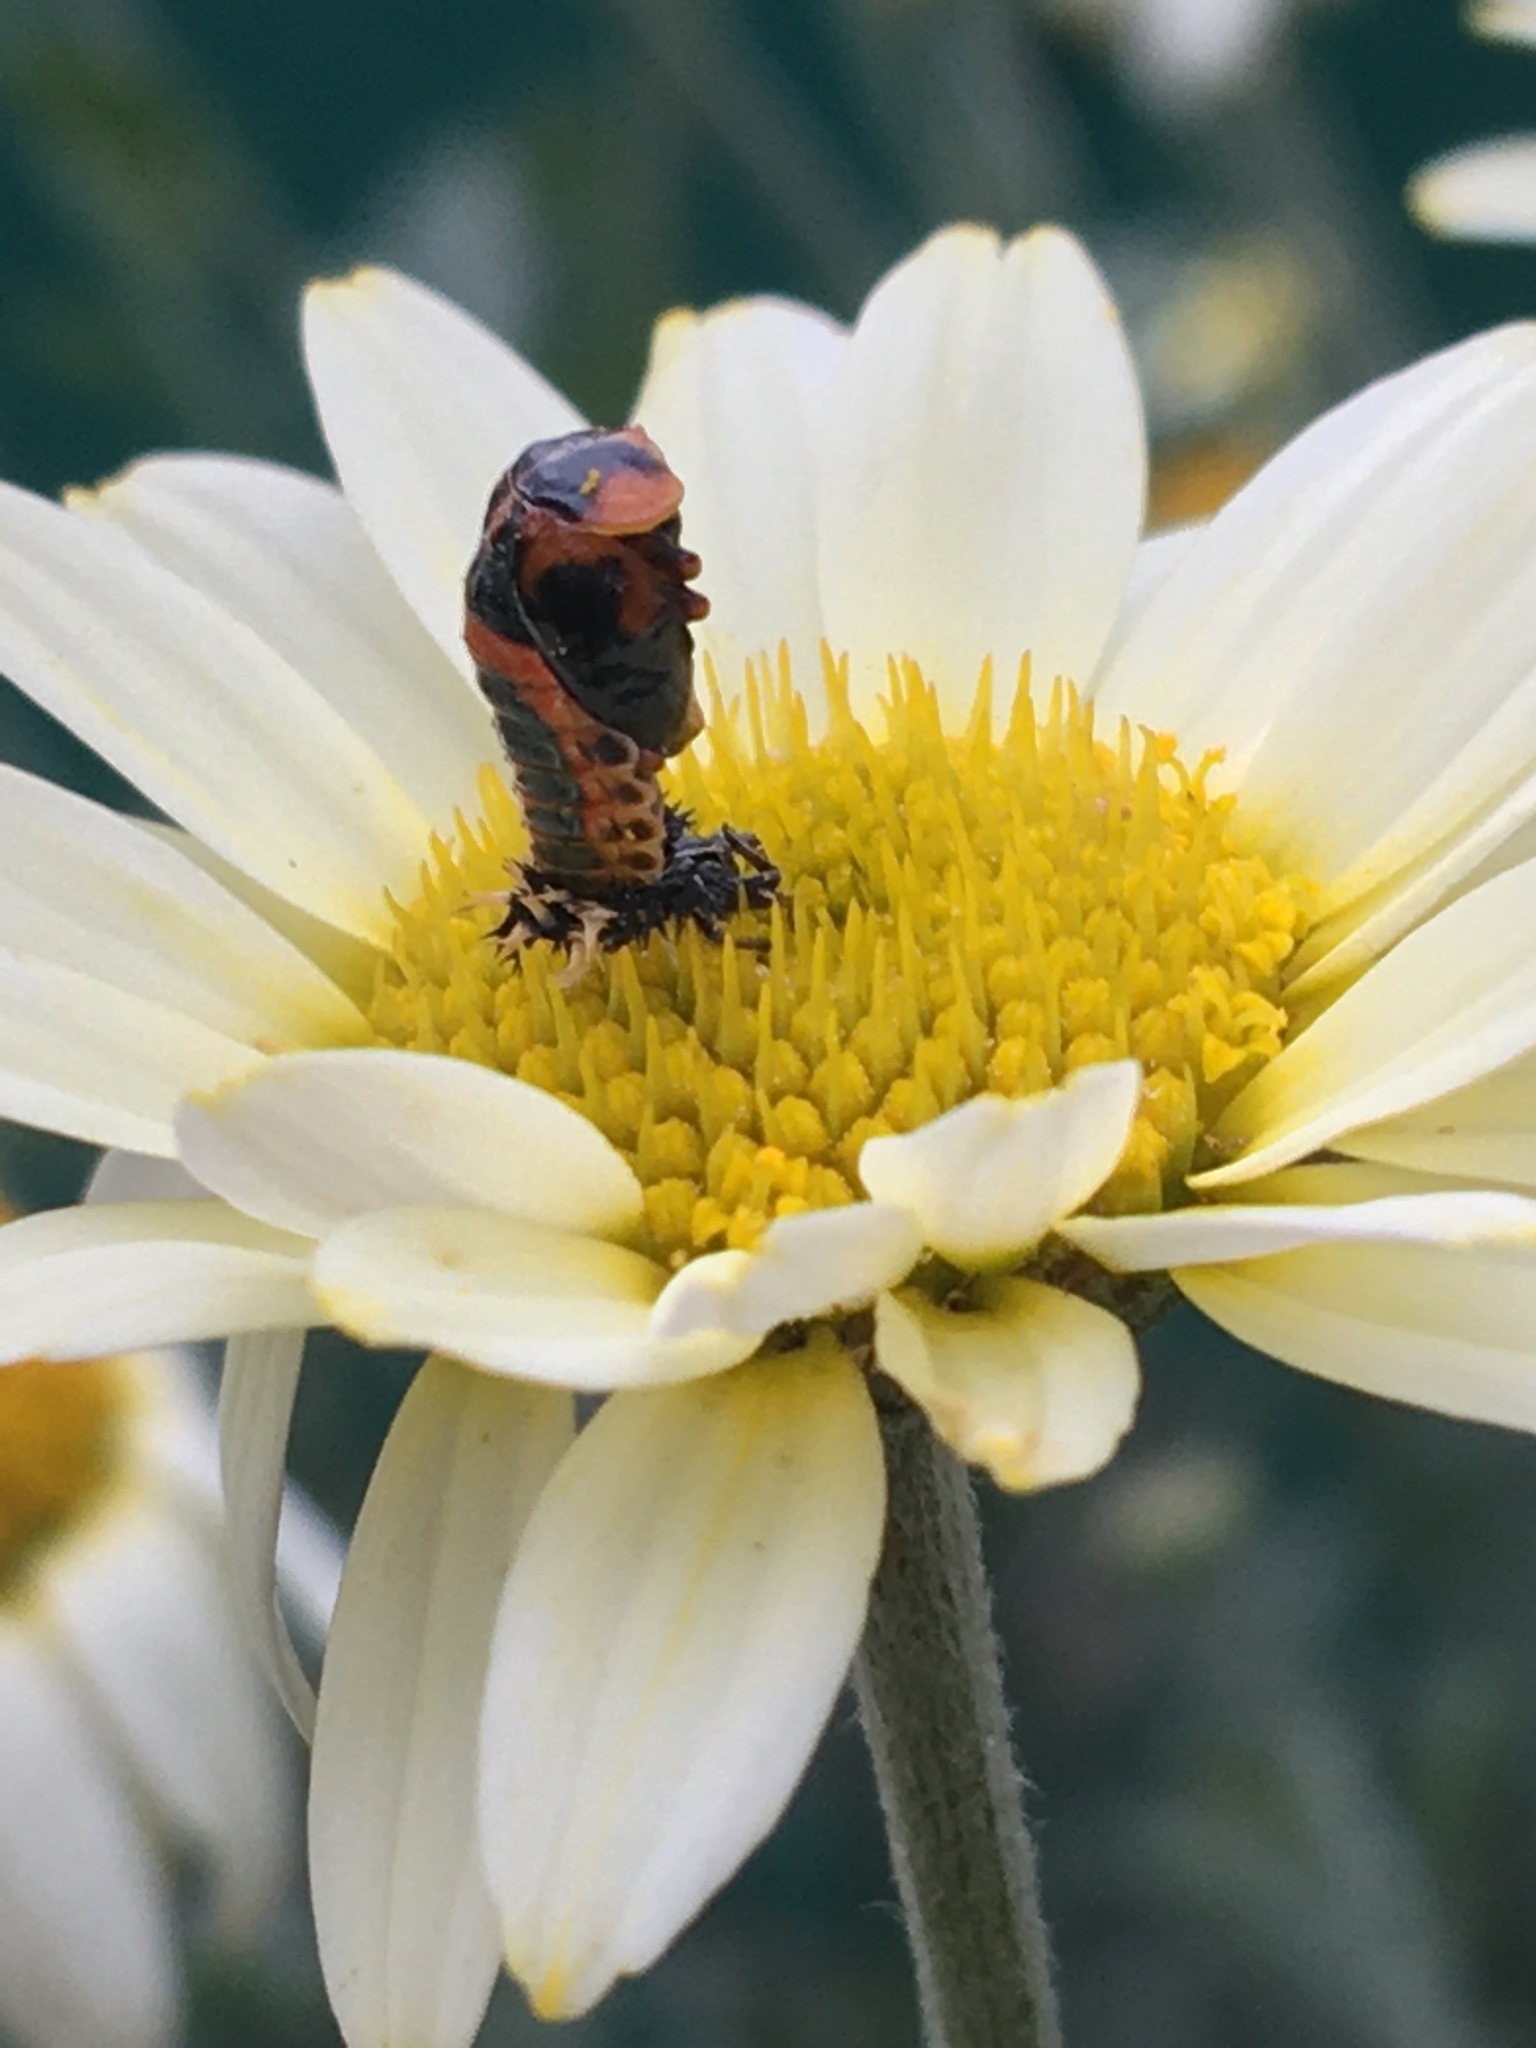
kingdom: Animalia
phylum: Arthropoda
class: Insecta
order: Coleoptera
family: Coccinellidae
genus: Harmonia
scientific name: Harmonia axyridis
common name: Harlequin ladybird
